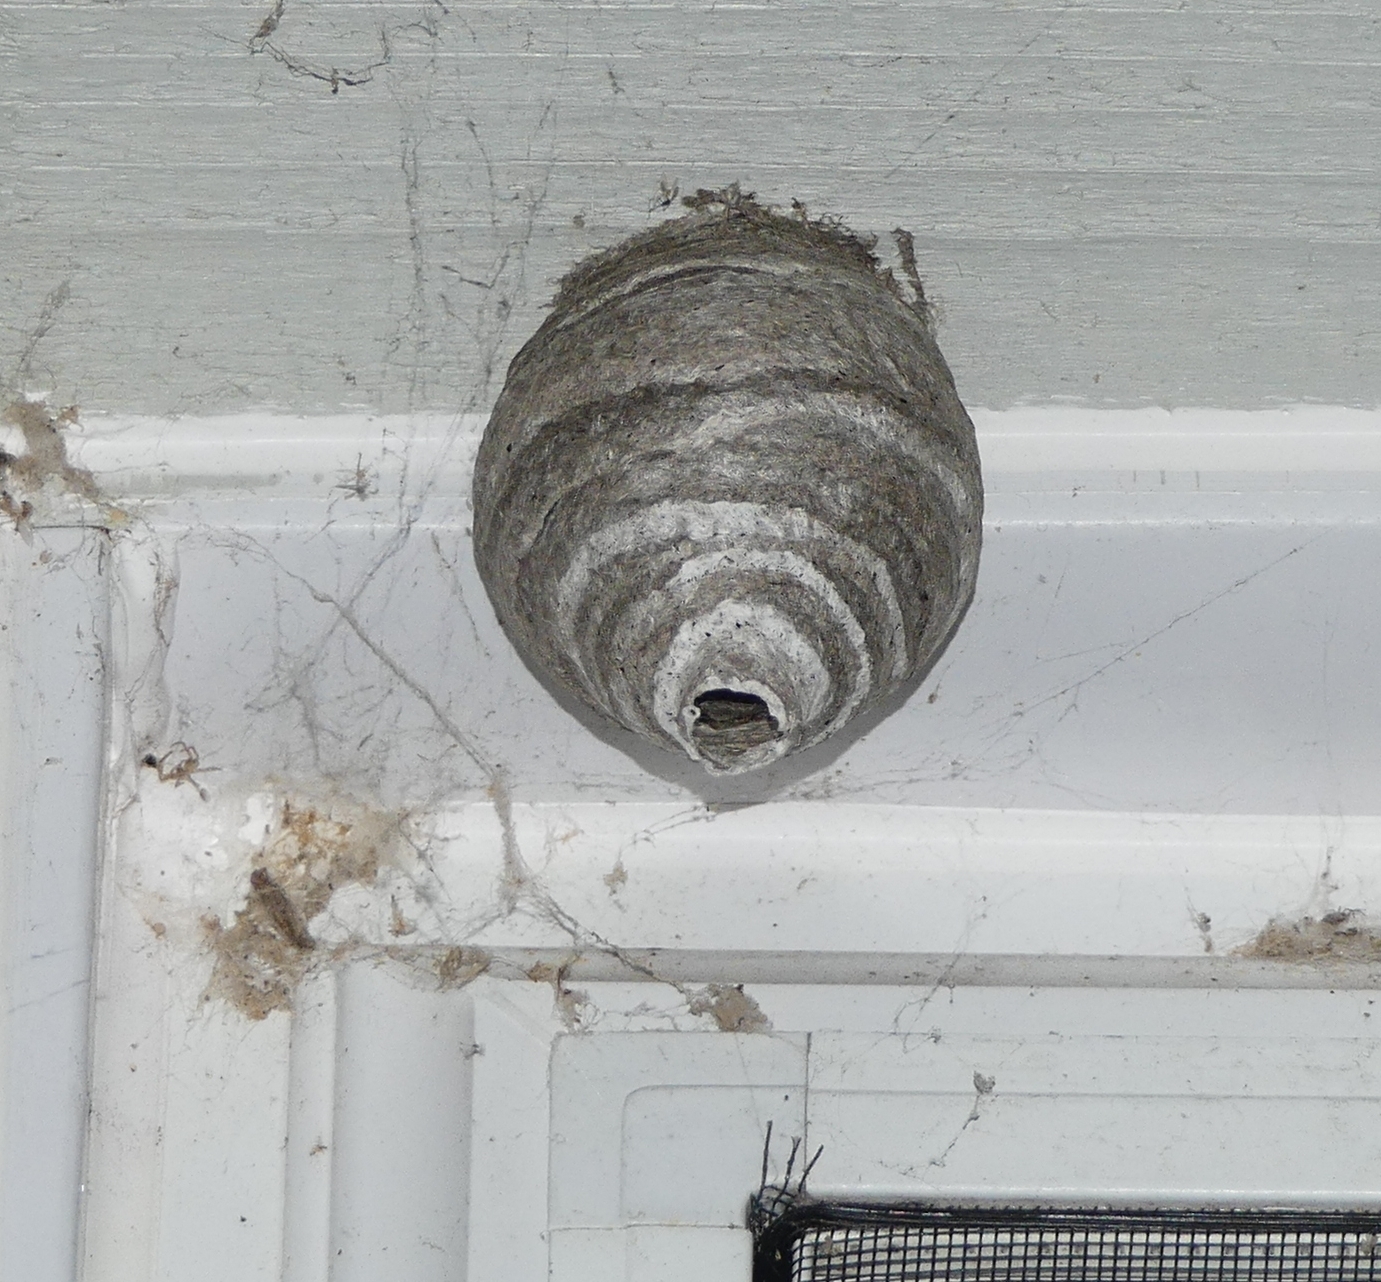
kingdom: Animalia
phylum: Arthropoda
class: Insecta
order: Hymenoptera
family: Vespidae
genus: Dolichovespula
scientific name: Dolichovespula
